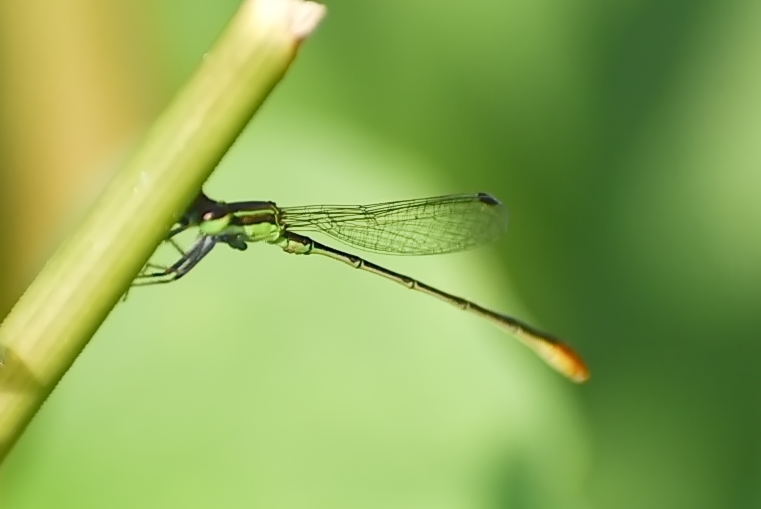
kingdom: Animalia
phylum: Arthropoda
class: Insecta
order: Odonata
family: Coenagrionidae
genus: Agriocnemis
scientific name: Agriocnemis pygmaea
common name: Pygmy wisp
